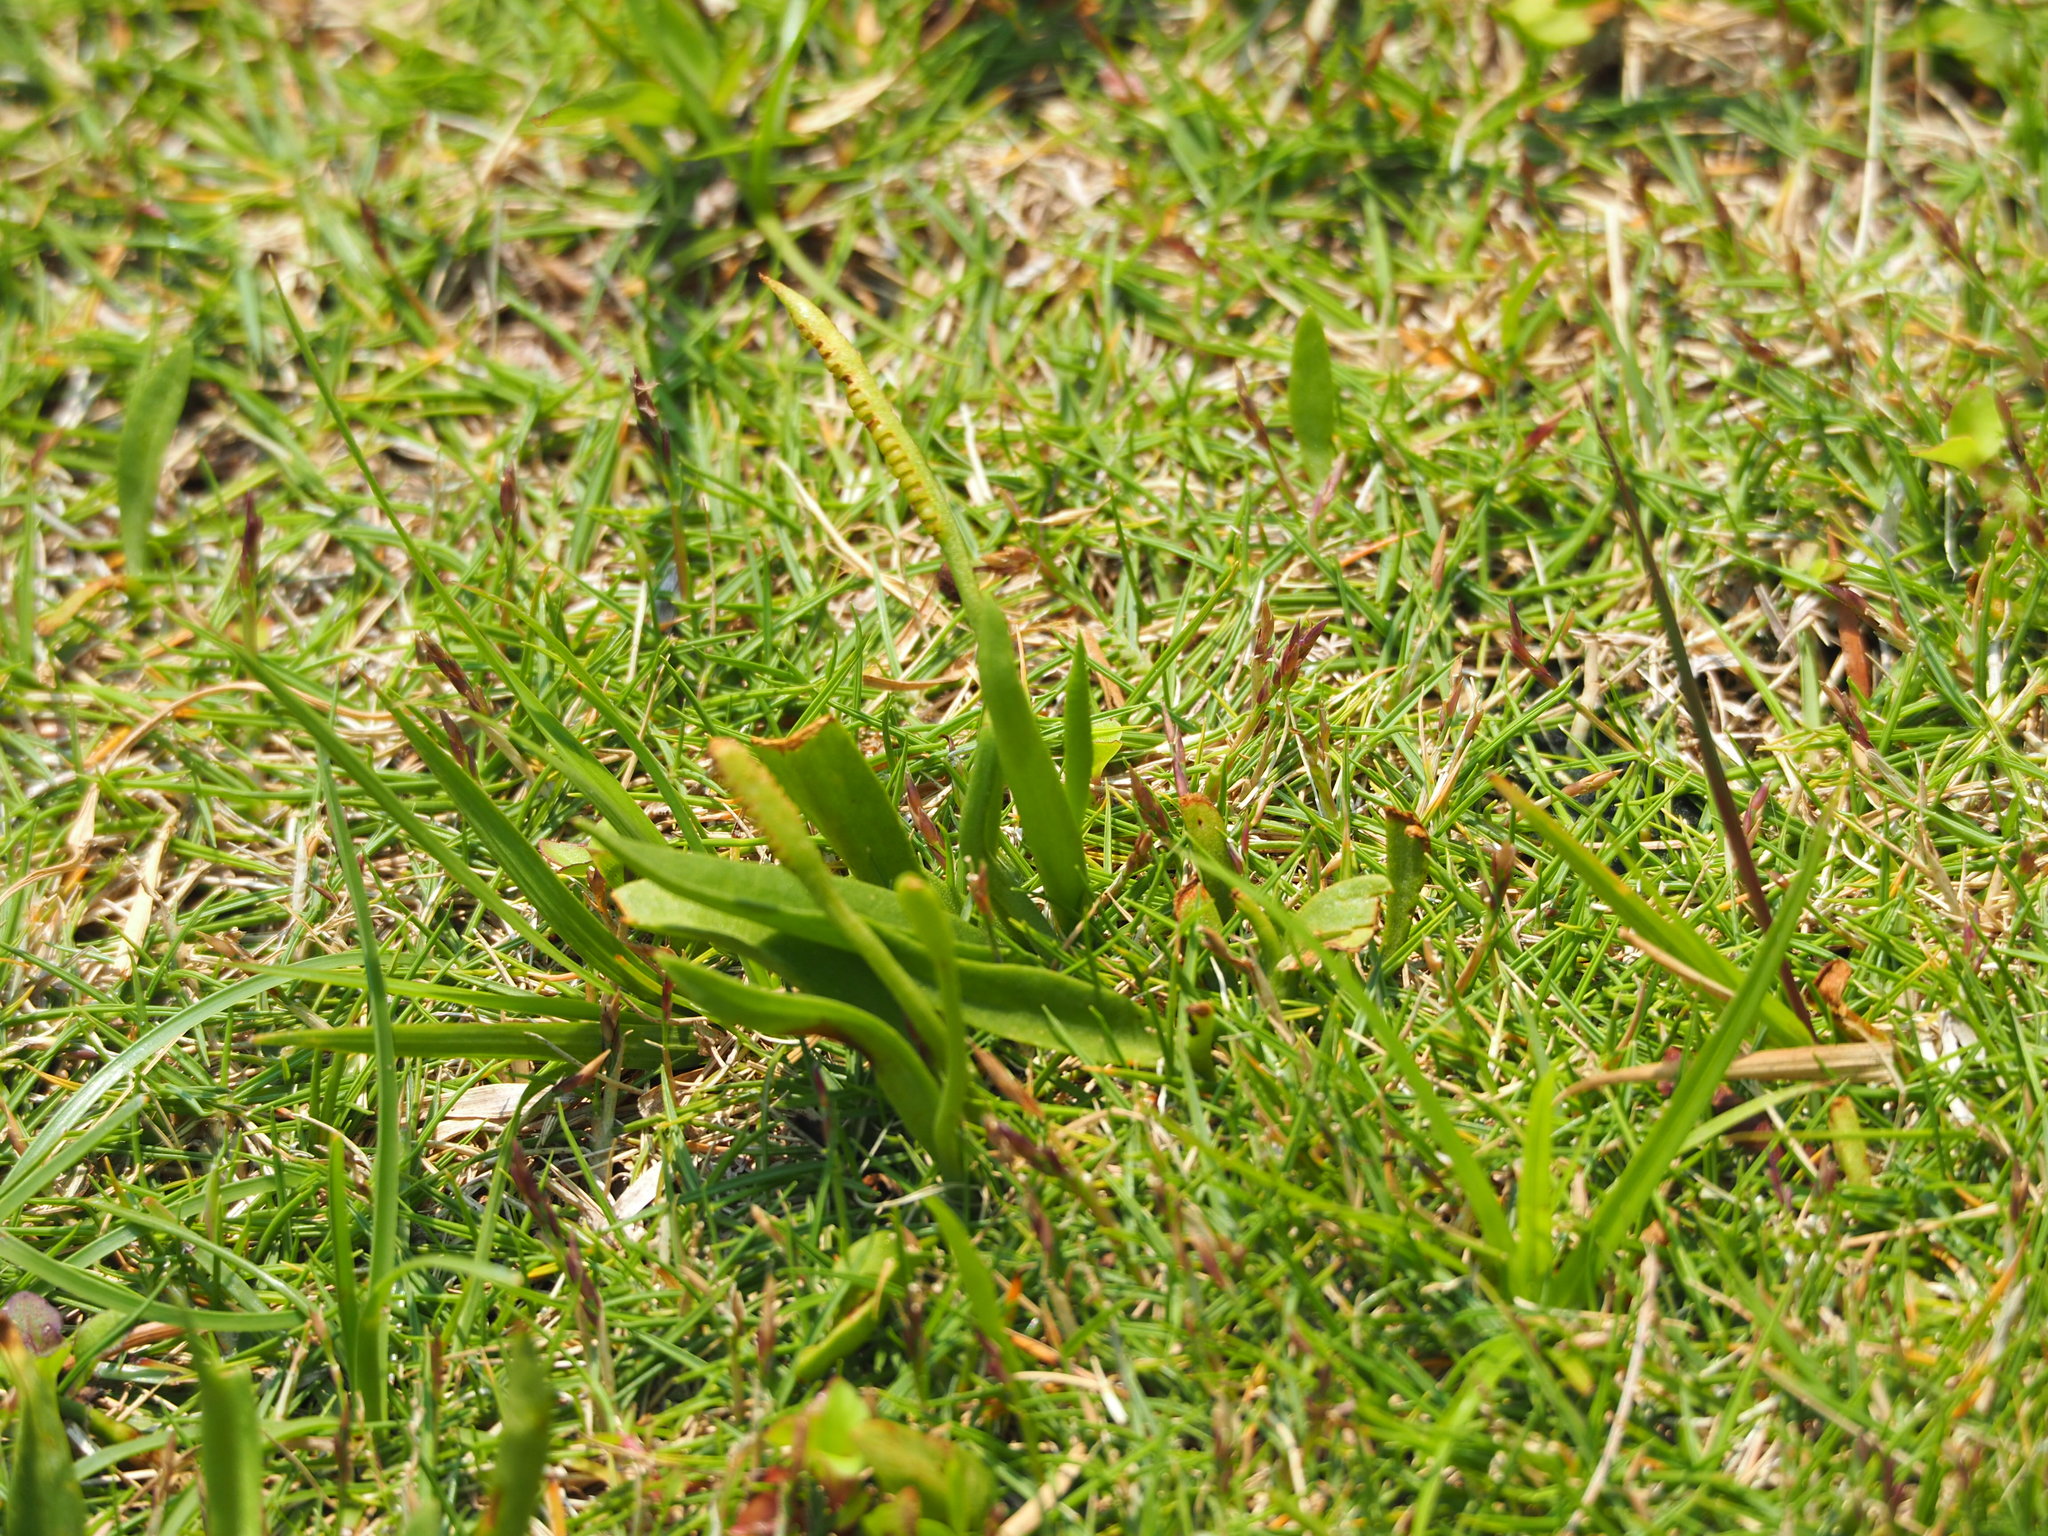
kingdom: Plantae
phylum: Tracheophyta
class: Polypodiopsida
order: Ophioglossales
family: Ophioglossaceae
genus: Ophioglossum
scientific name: Ophioglossum petiolatum
